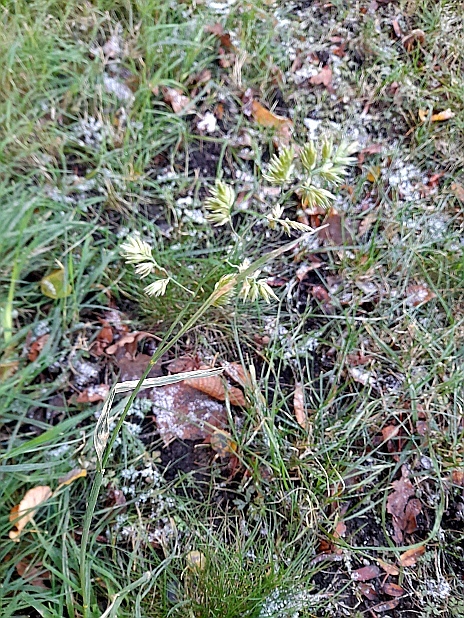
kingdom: Plantae
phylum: Tracheophyta
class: Liliopsida
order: Poales
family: Poaceae
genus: Dactylis
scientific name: Dactylis glomerata
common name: Orchardgrass
